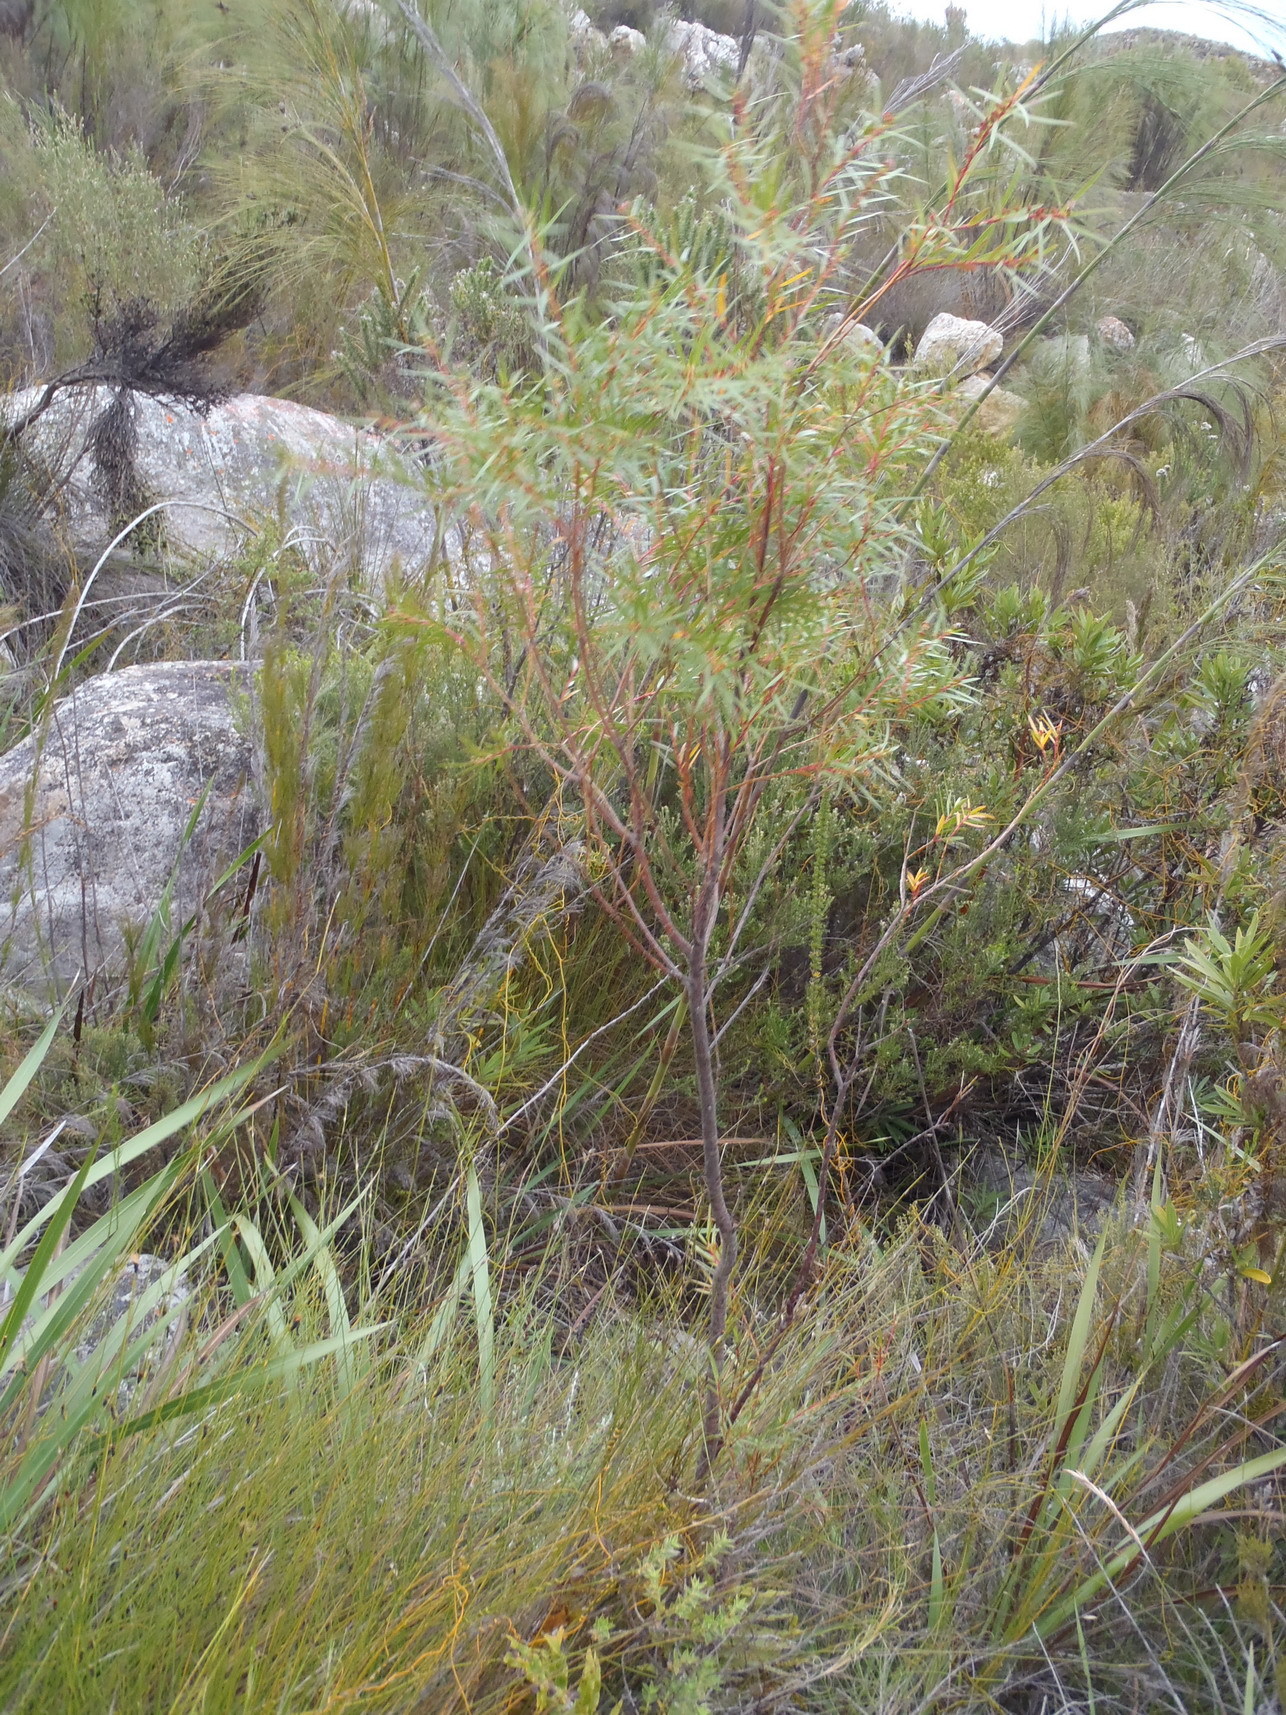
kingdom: Plantae
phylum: Tracheophyta
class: Magnoliopsida
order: Sapindales
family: Rutaceae
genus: Empleurum
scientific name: Empleurum unicapsulare
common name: False buchu
